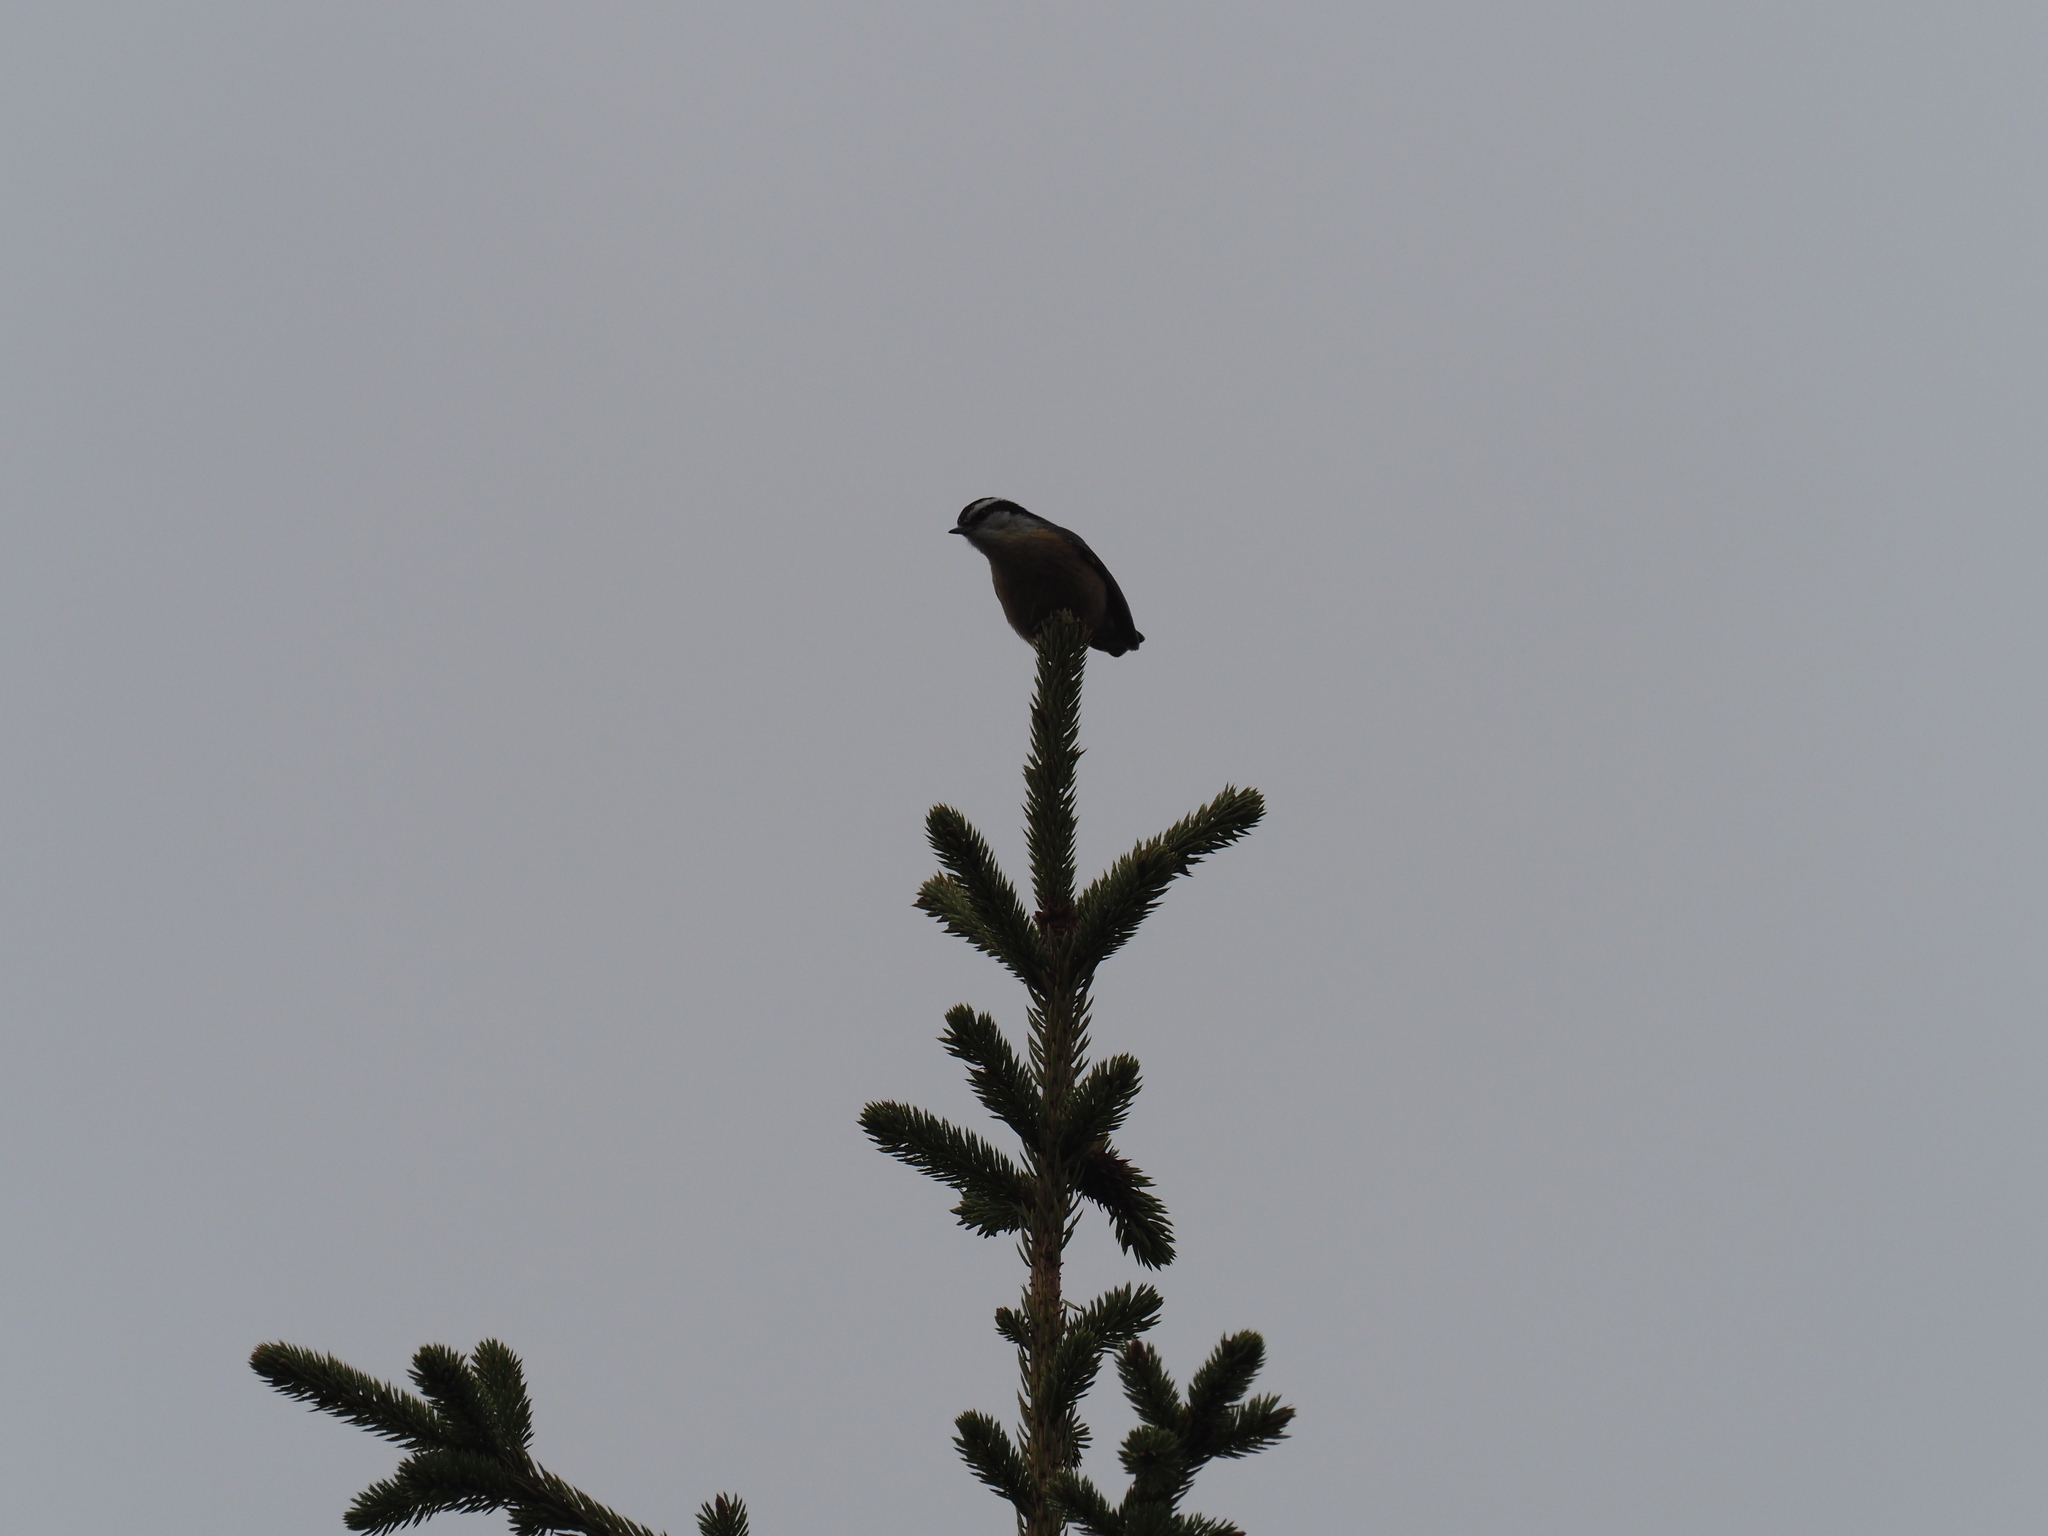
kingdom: Animalia
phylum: Chordata
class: Aves
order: Passeriformes
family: Sittidae
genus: Sitta
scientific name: Sitta canadensis
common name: Red-breasted nuthatch
